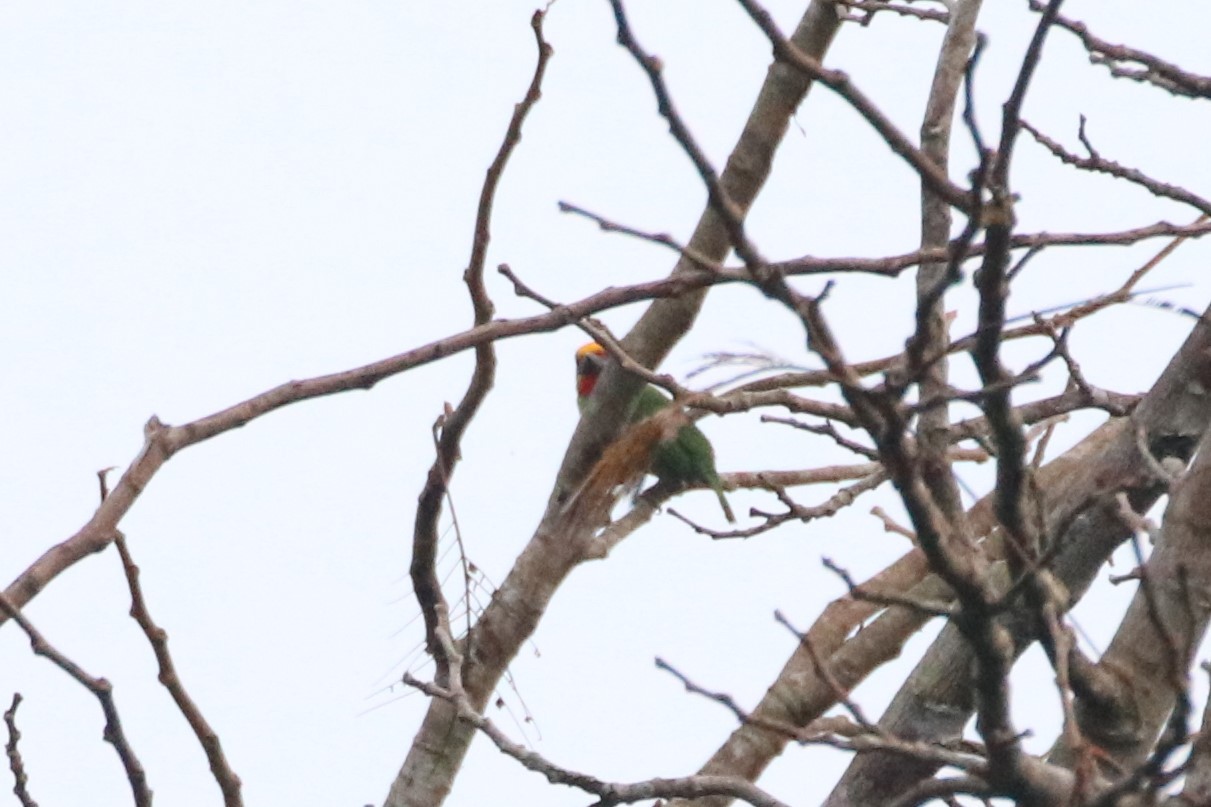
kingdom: Animalia
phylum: Chordata
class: Aves
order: Piciformes
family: Megalaimidae
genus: Psilopogon
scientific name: Psilopogon mystacophanos
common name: Red-throated barbet
